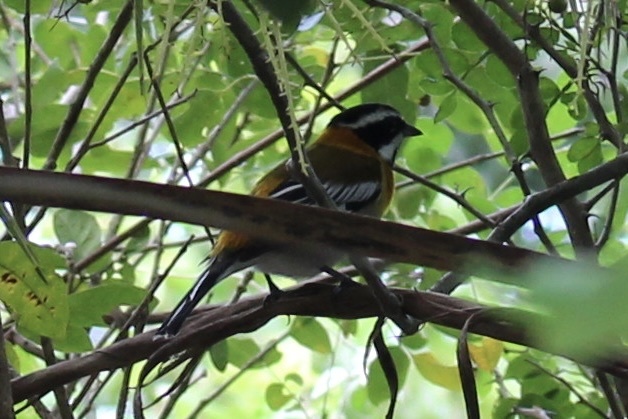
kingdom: Animalia
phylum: Chordata
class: Aves
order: Passeriformes
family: Spindalidae
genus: Spindalis
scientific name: Spindalis zena
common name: Western spindalis
